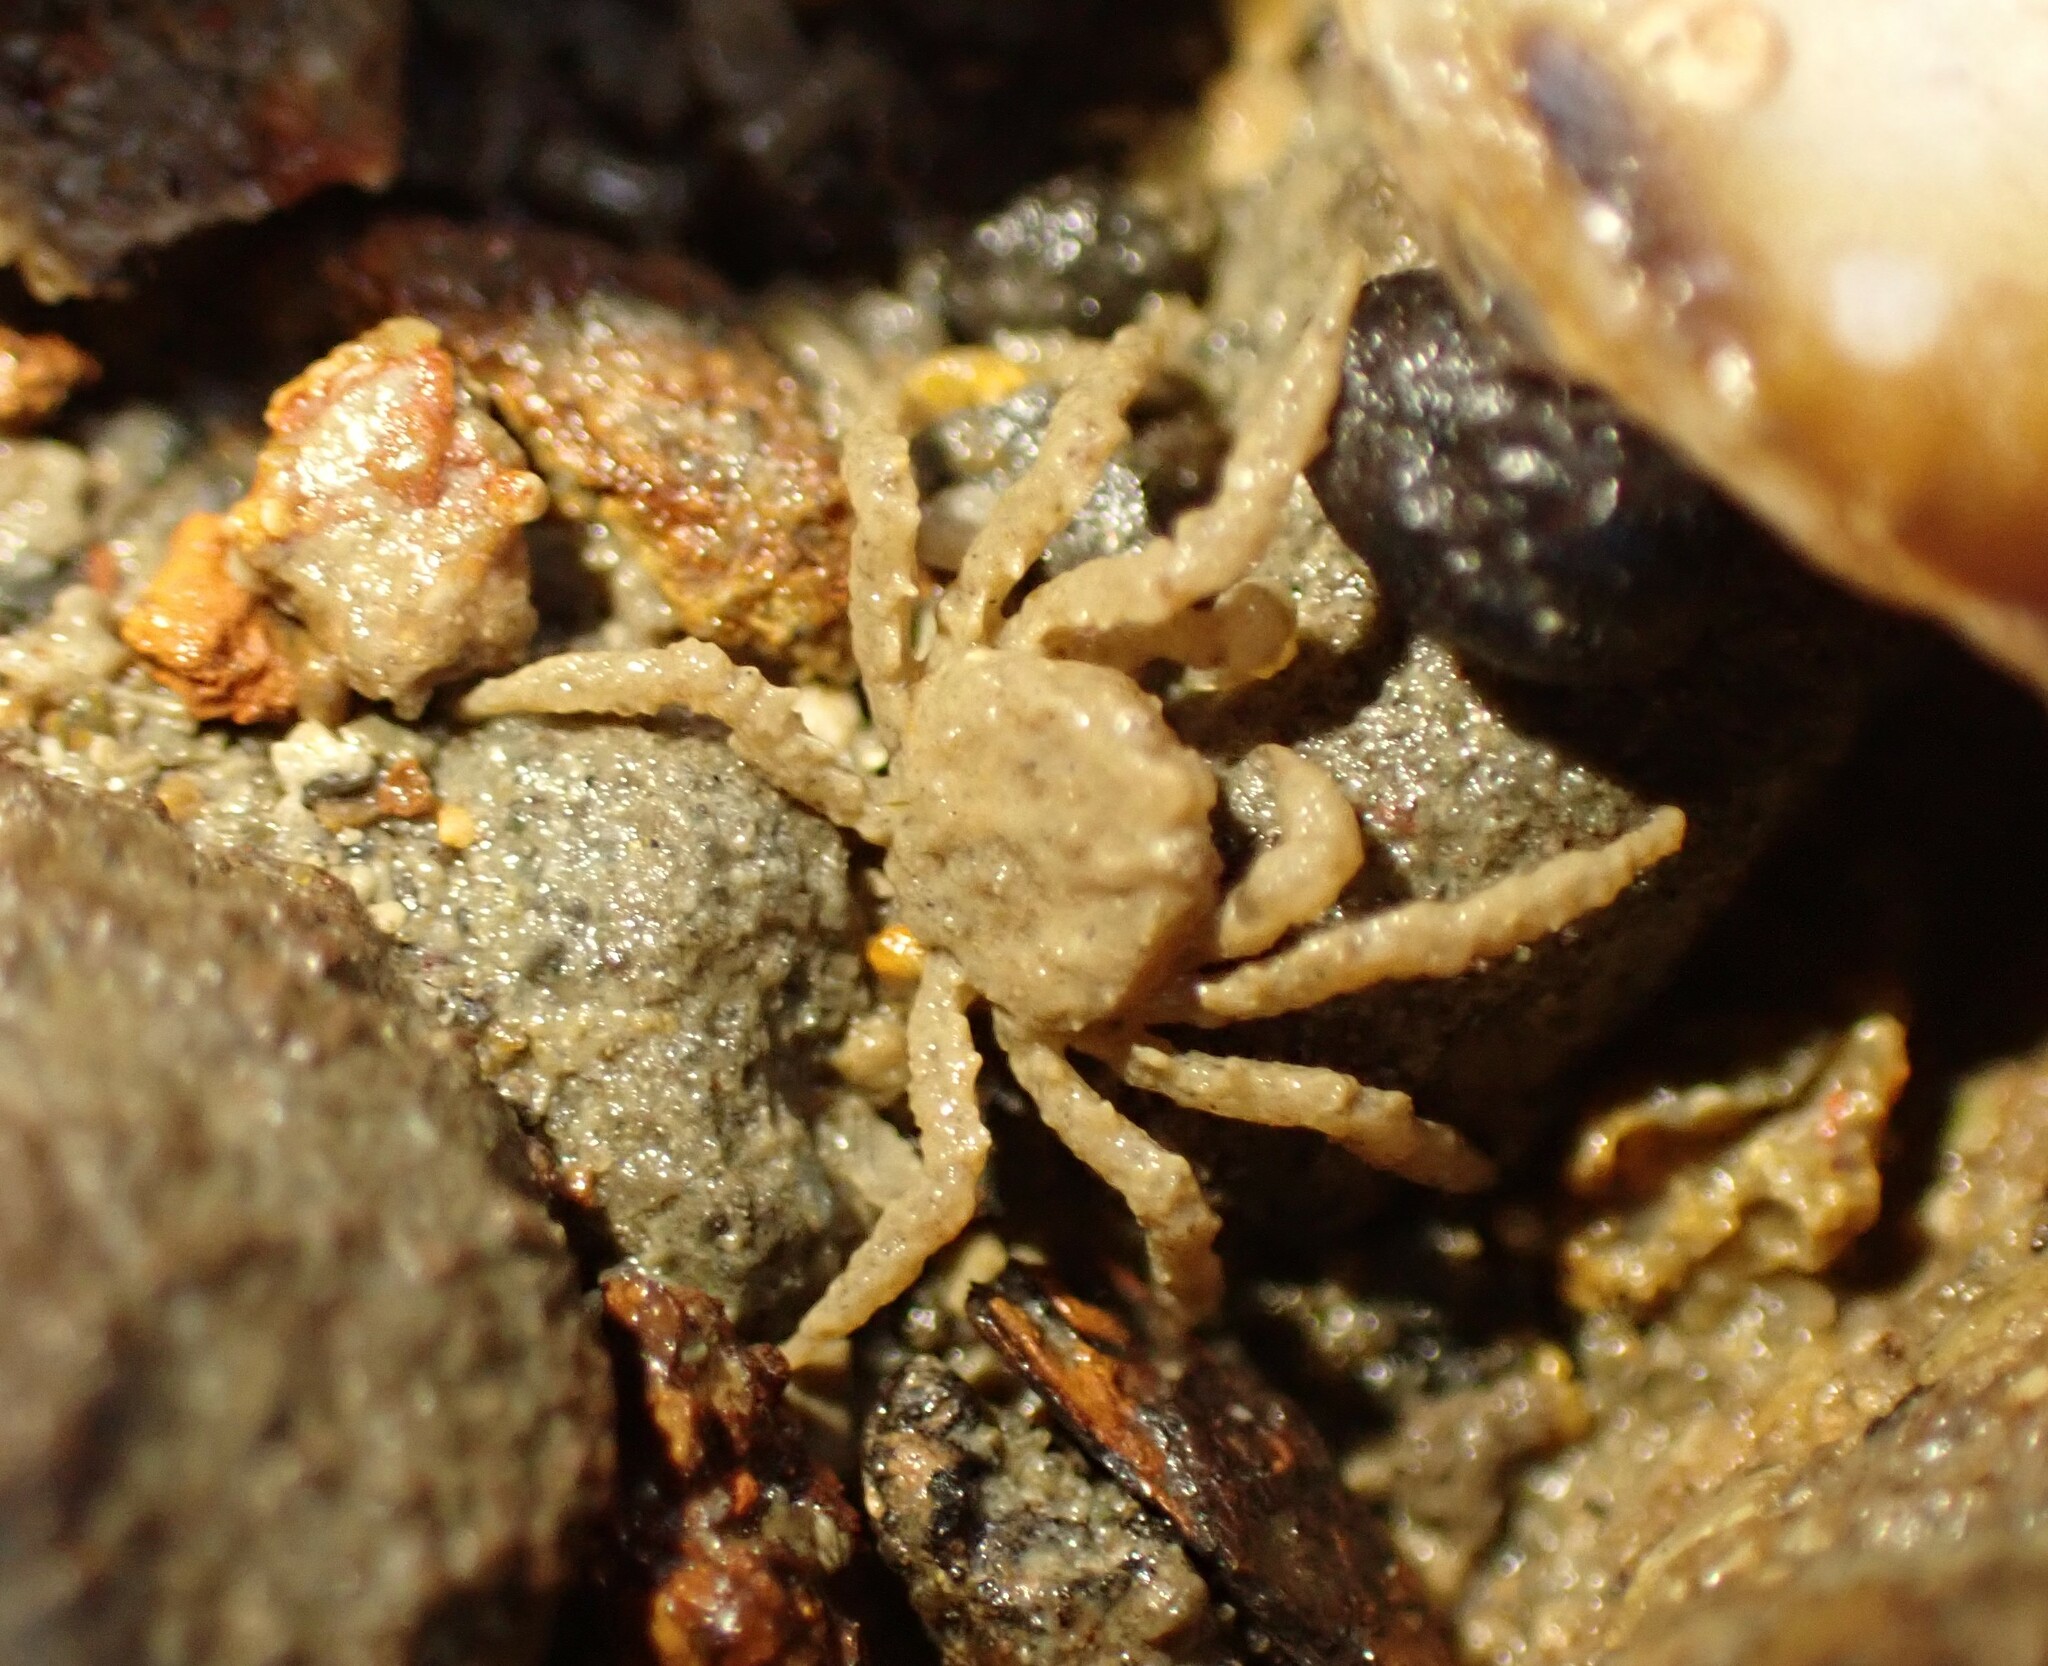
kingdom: Animalia
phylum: Arthropoda
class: Malacostraca
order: Decapoda
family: Hymenosomatidae
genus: Neohymenicus
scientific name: Neohymenicus pubescens
